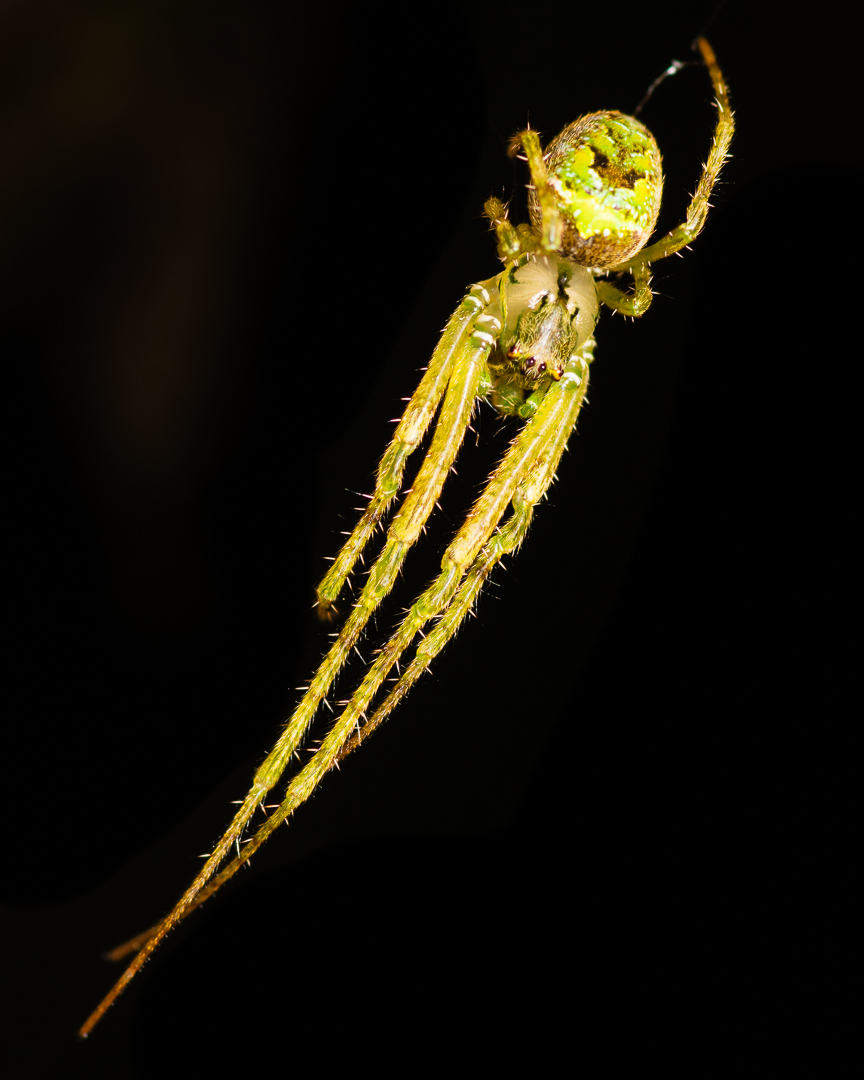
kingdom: Animalia
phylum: Arthropoda
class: Arachnida
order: Araneae
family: Tetragnathidae
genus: Allende
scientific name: Allende nigrohumeralis
